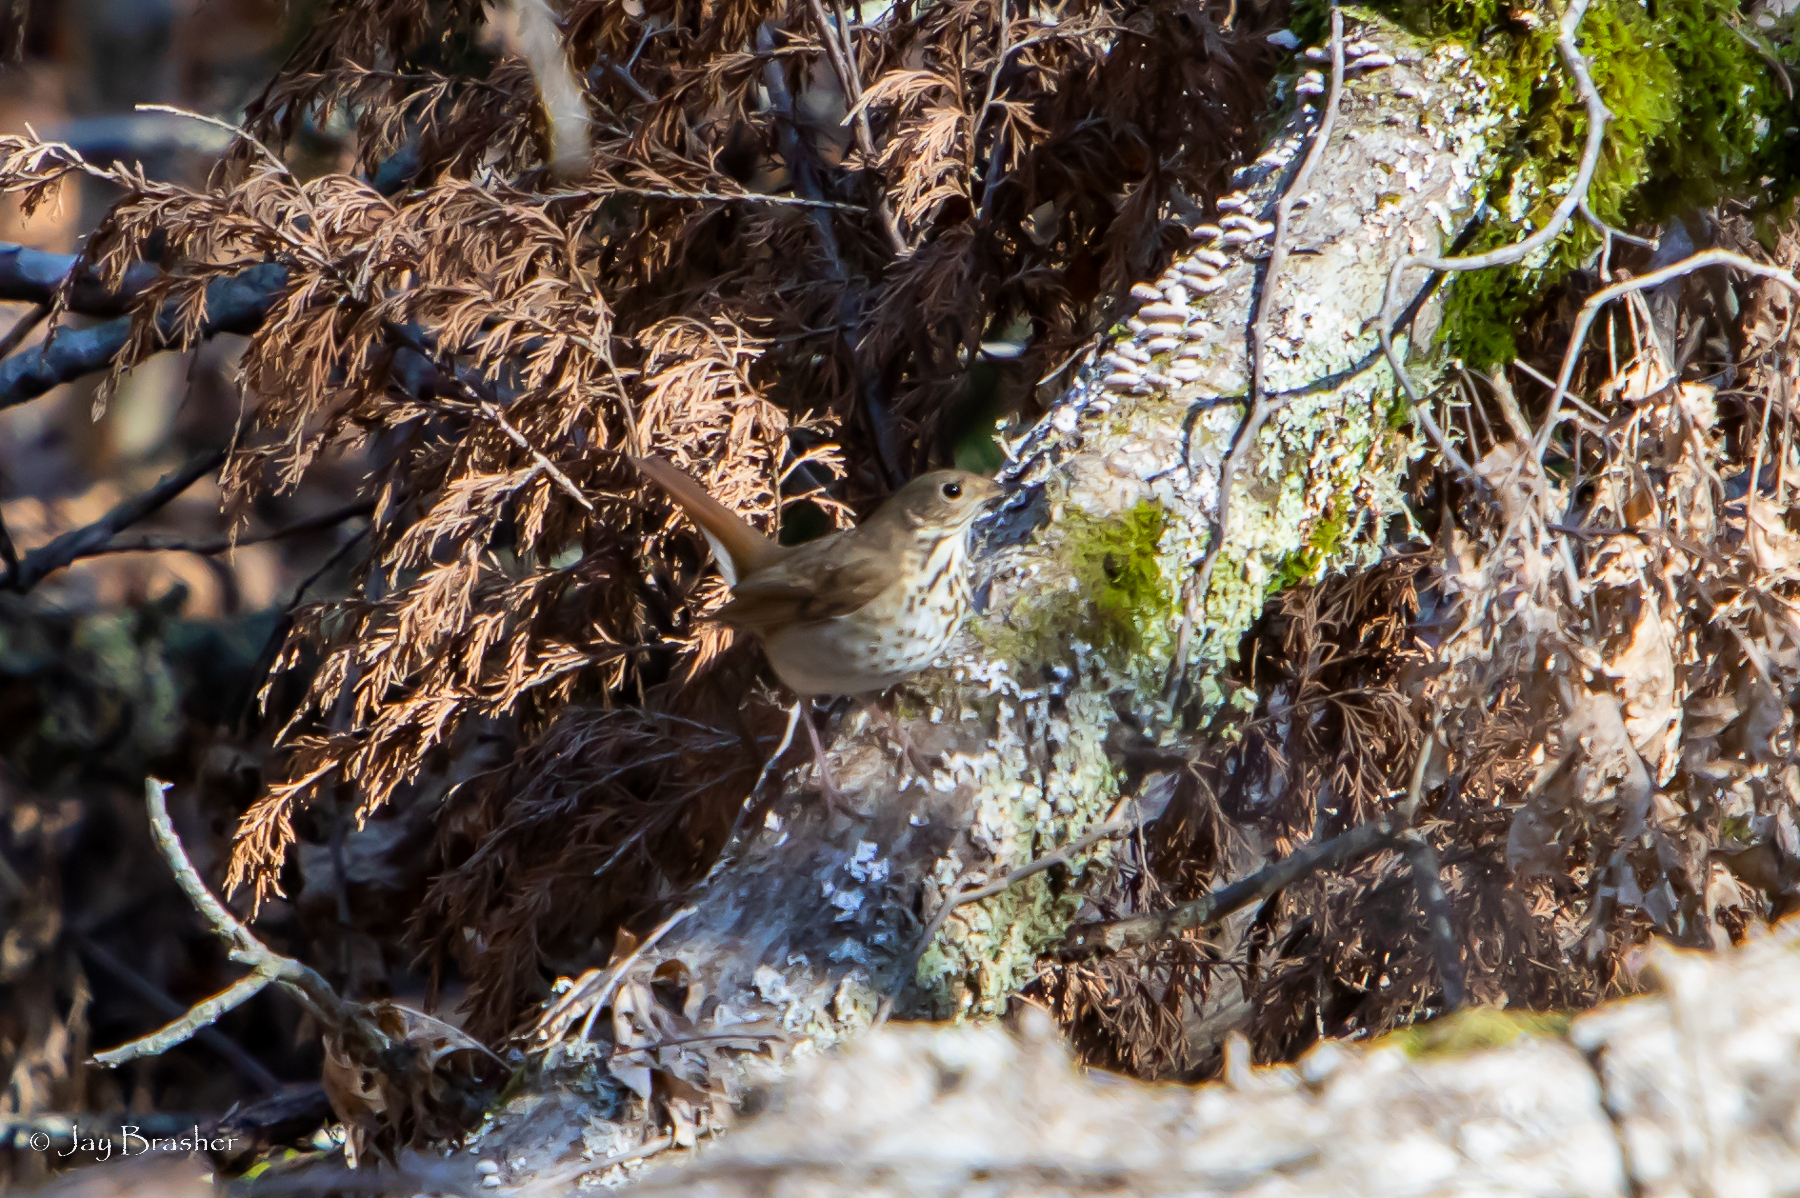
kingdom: Animalia
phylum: Chordata
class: Aves
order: Passeriformes
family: Turdidae
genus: Catharus
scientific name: Catharus guttatus
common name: Hermit thrush
